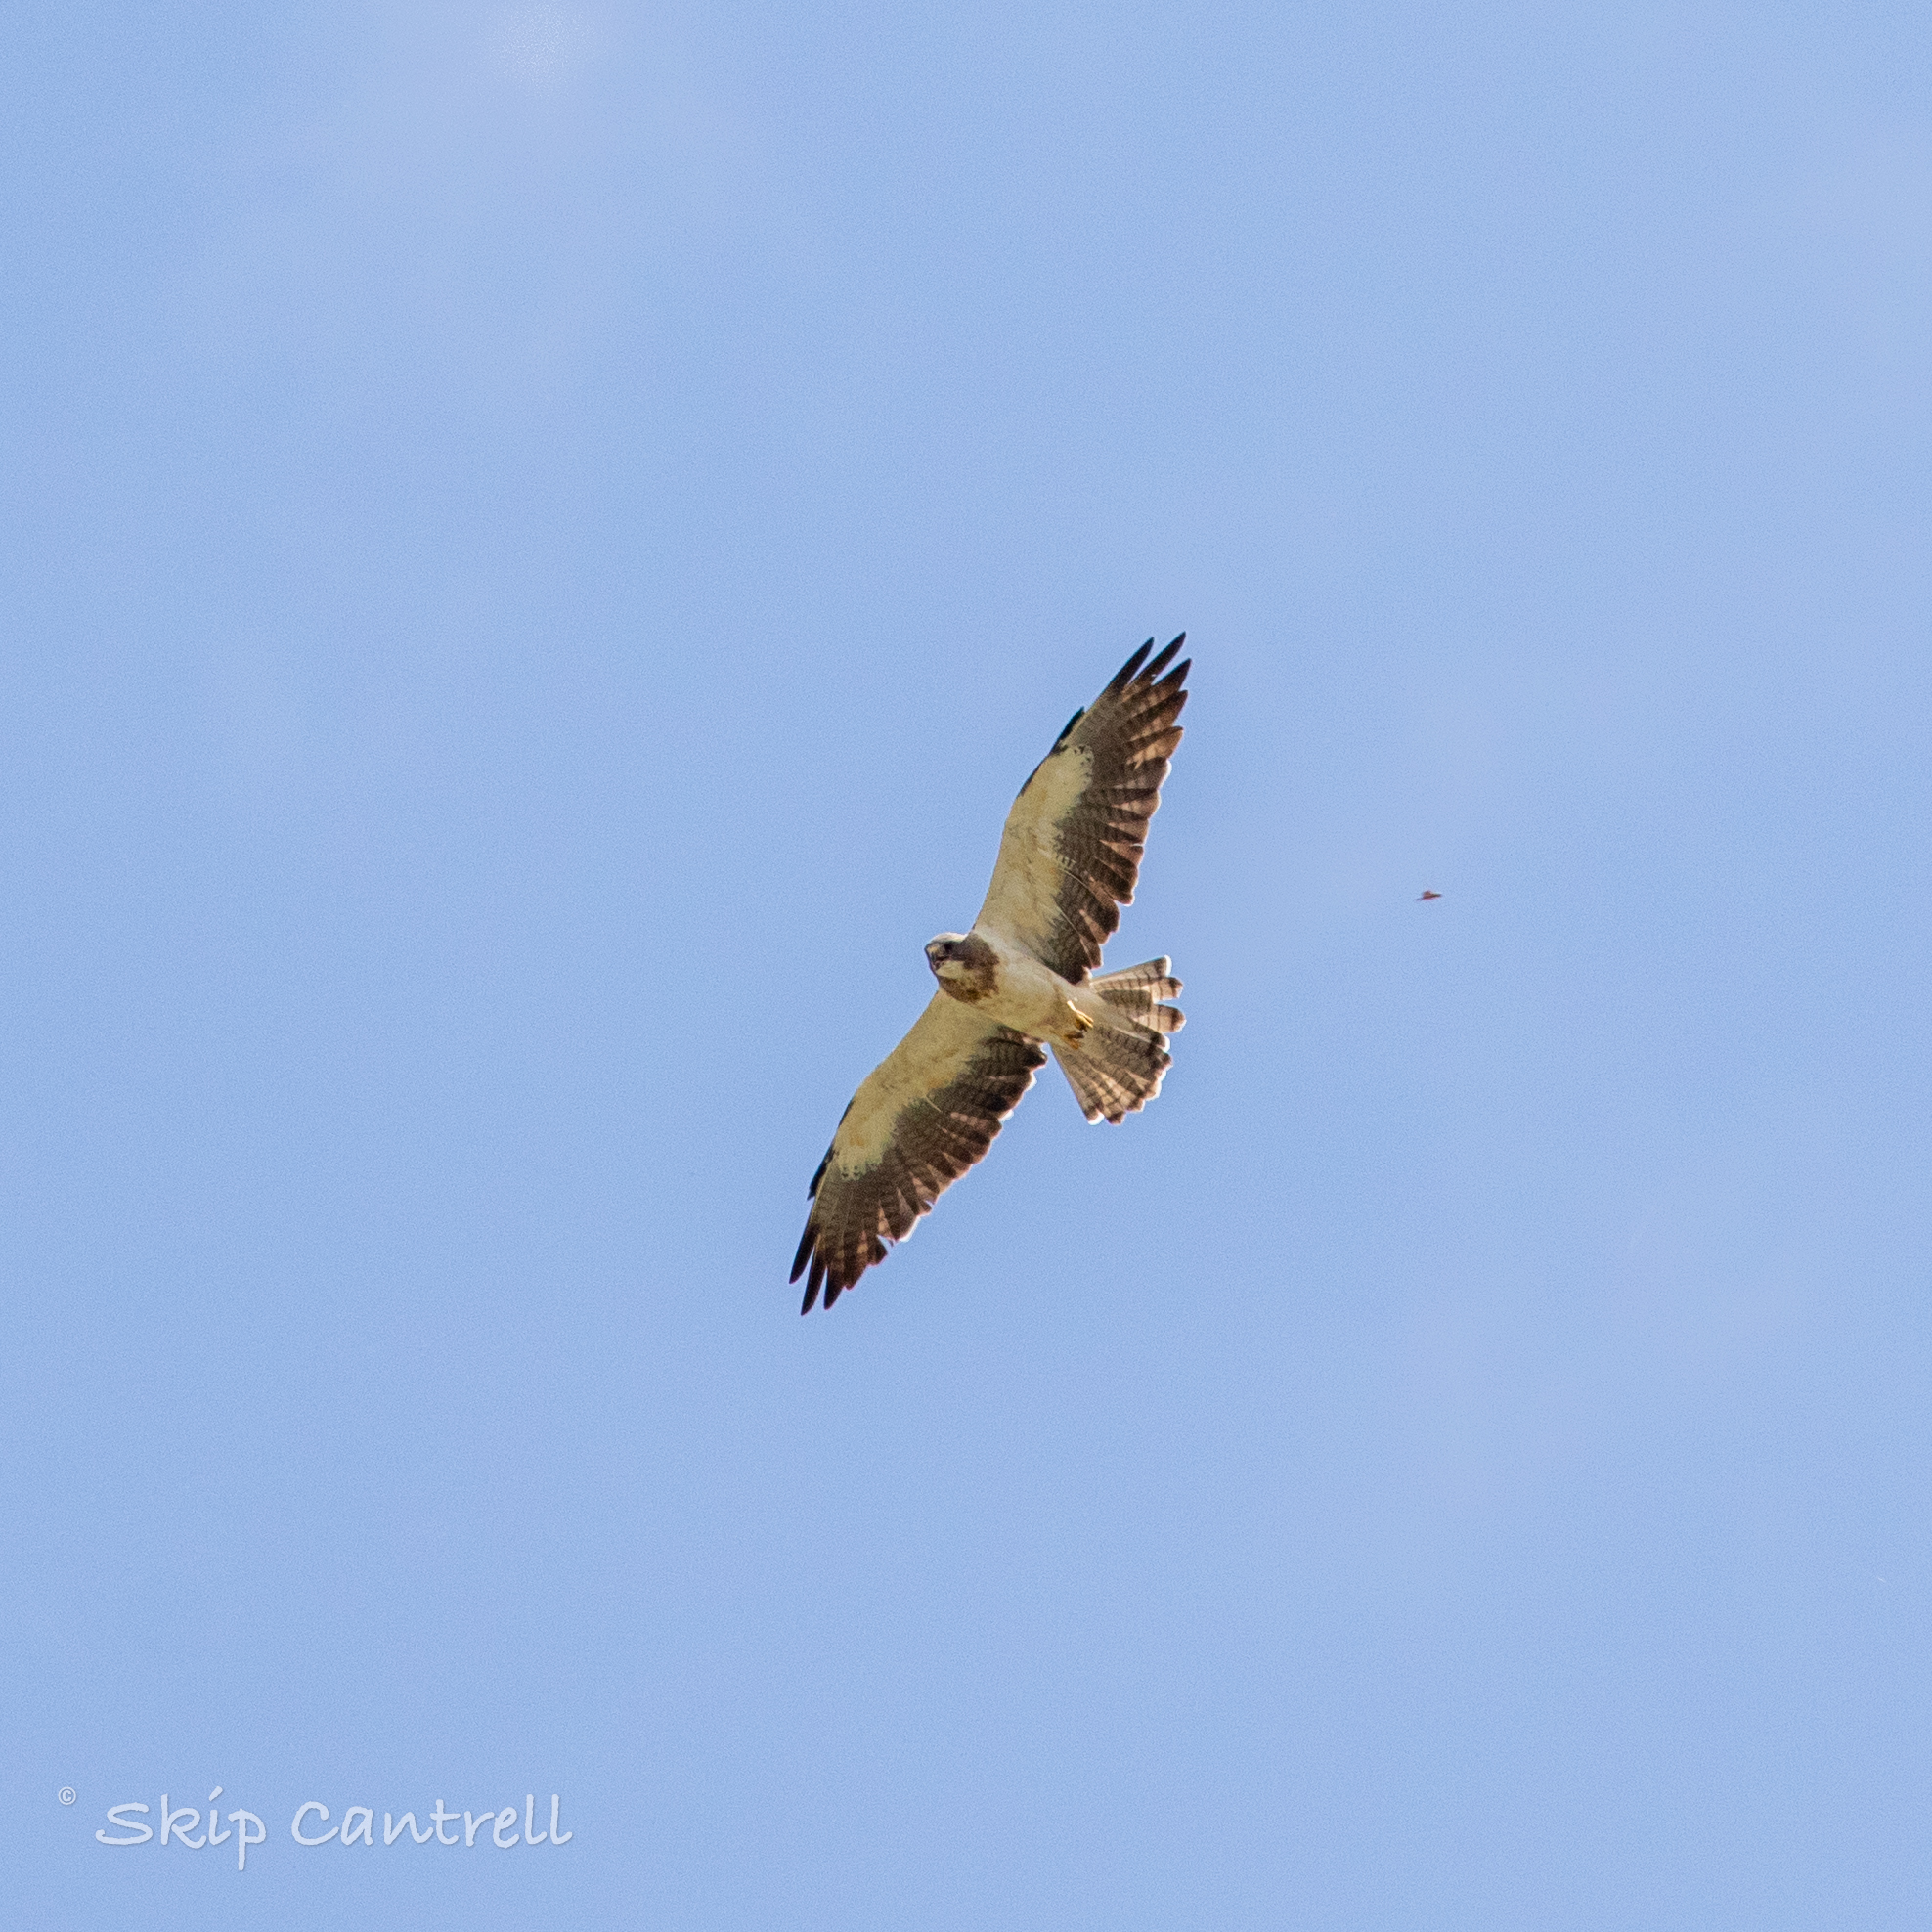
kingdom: Animalia
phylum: Chordata
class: Aves
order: Accipitriformes
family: Accipitridae
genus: Buteo
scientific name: Buteo swainsoni
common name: Swainson's hawk
